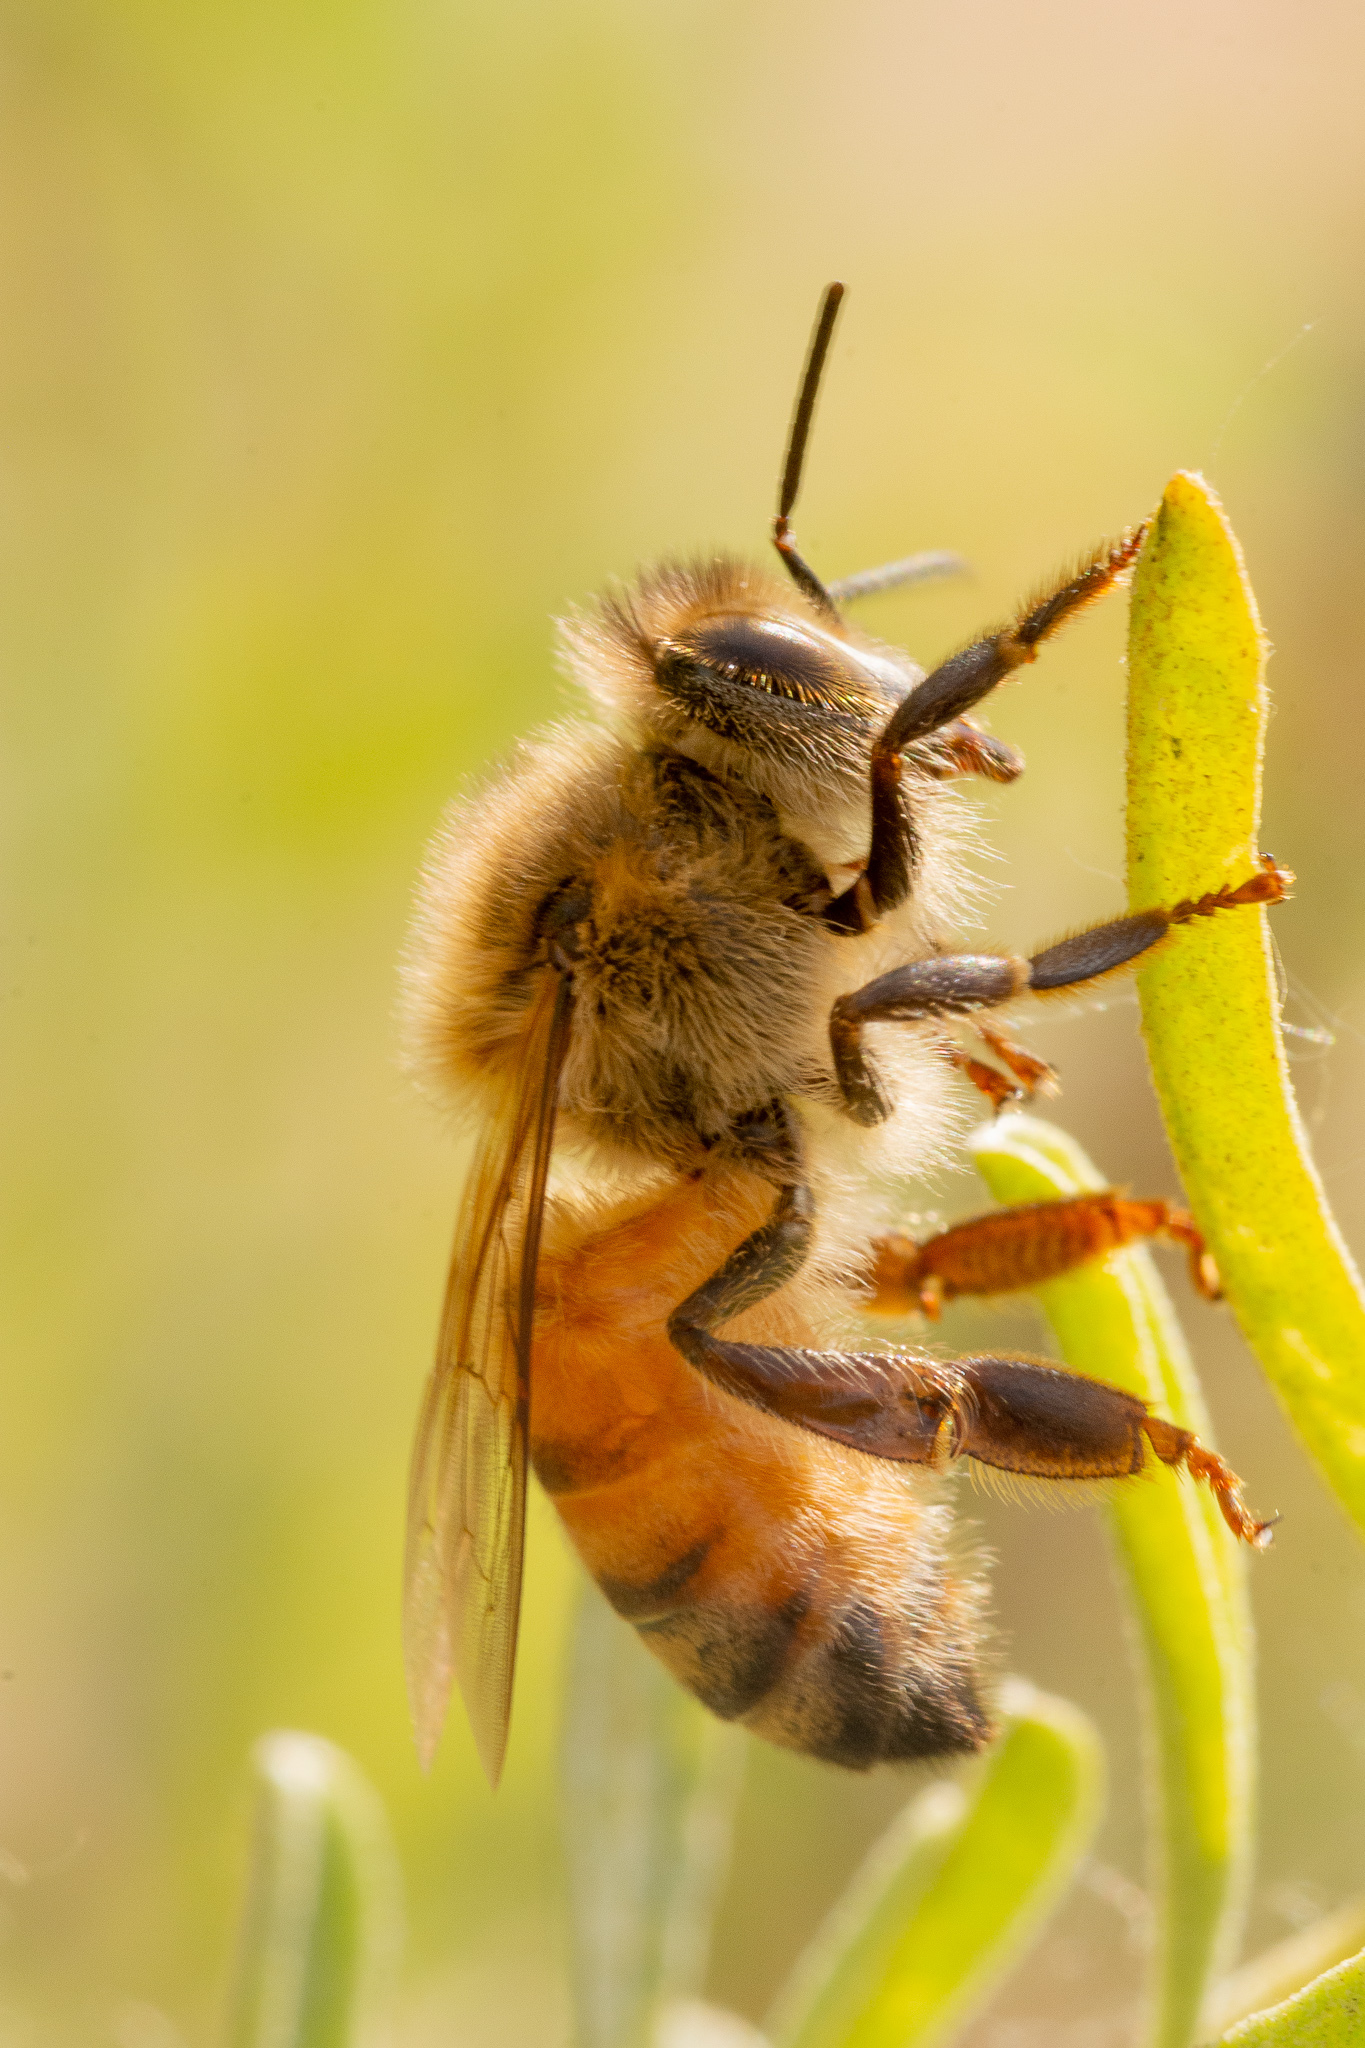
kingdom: Animalia
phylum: Arthropoda
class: Insecta
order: Hymenoptera
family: Apidae
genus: Apis
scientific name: Apis mellifera
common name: Honey bee
